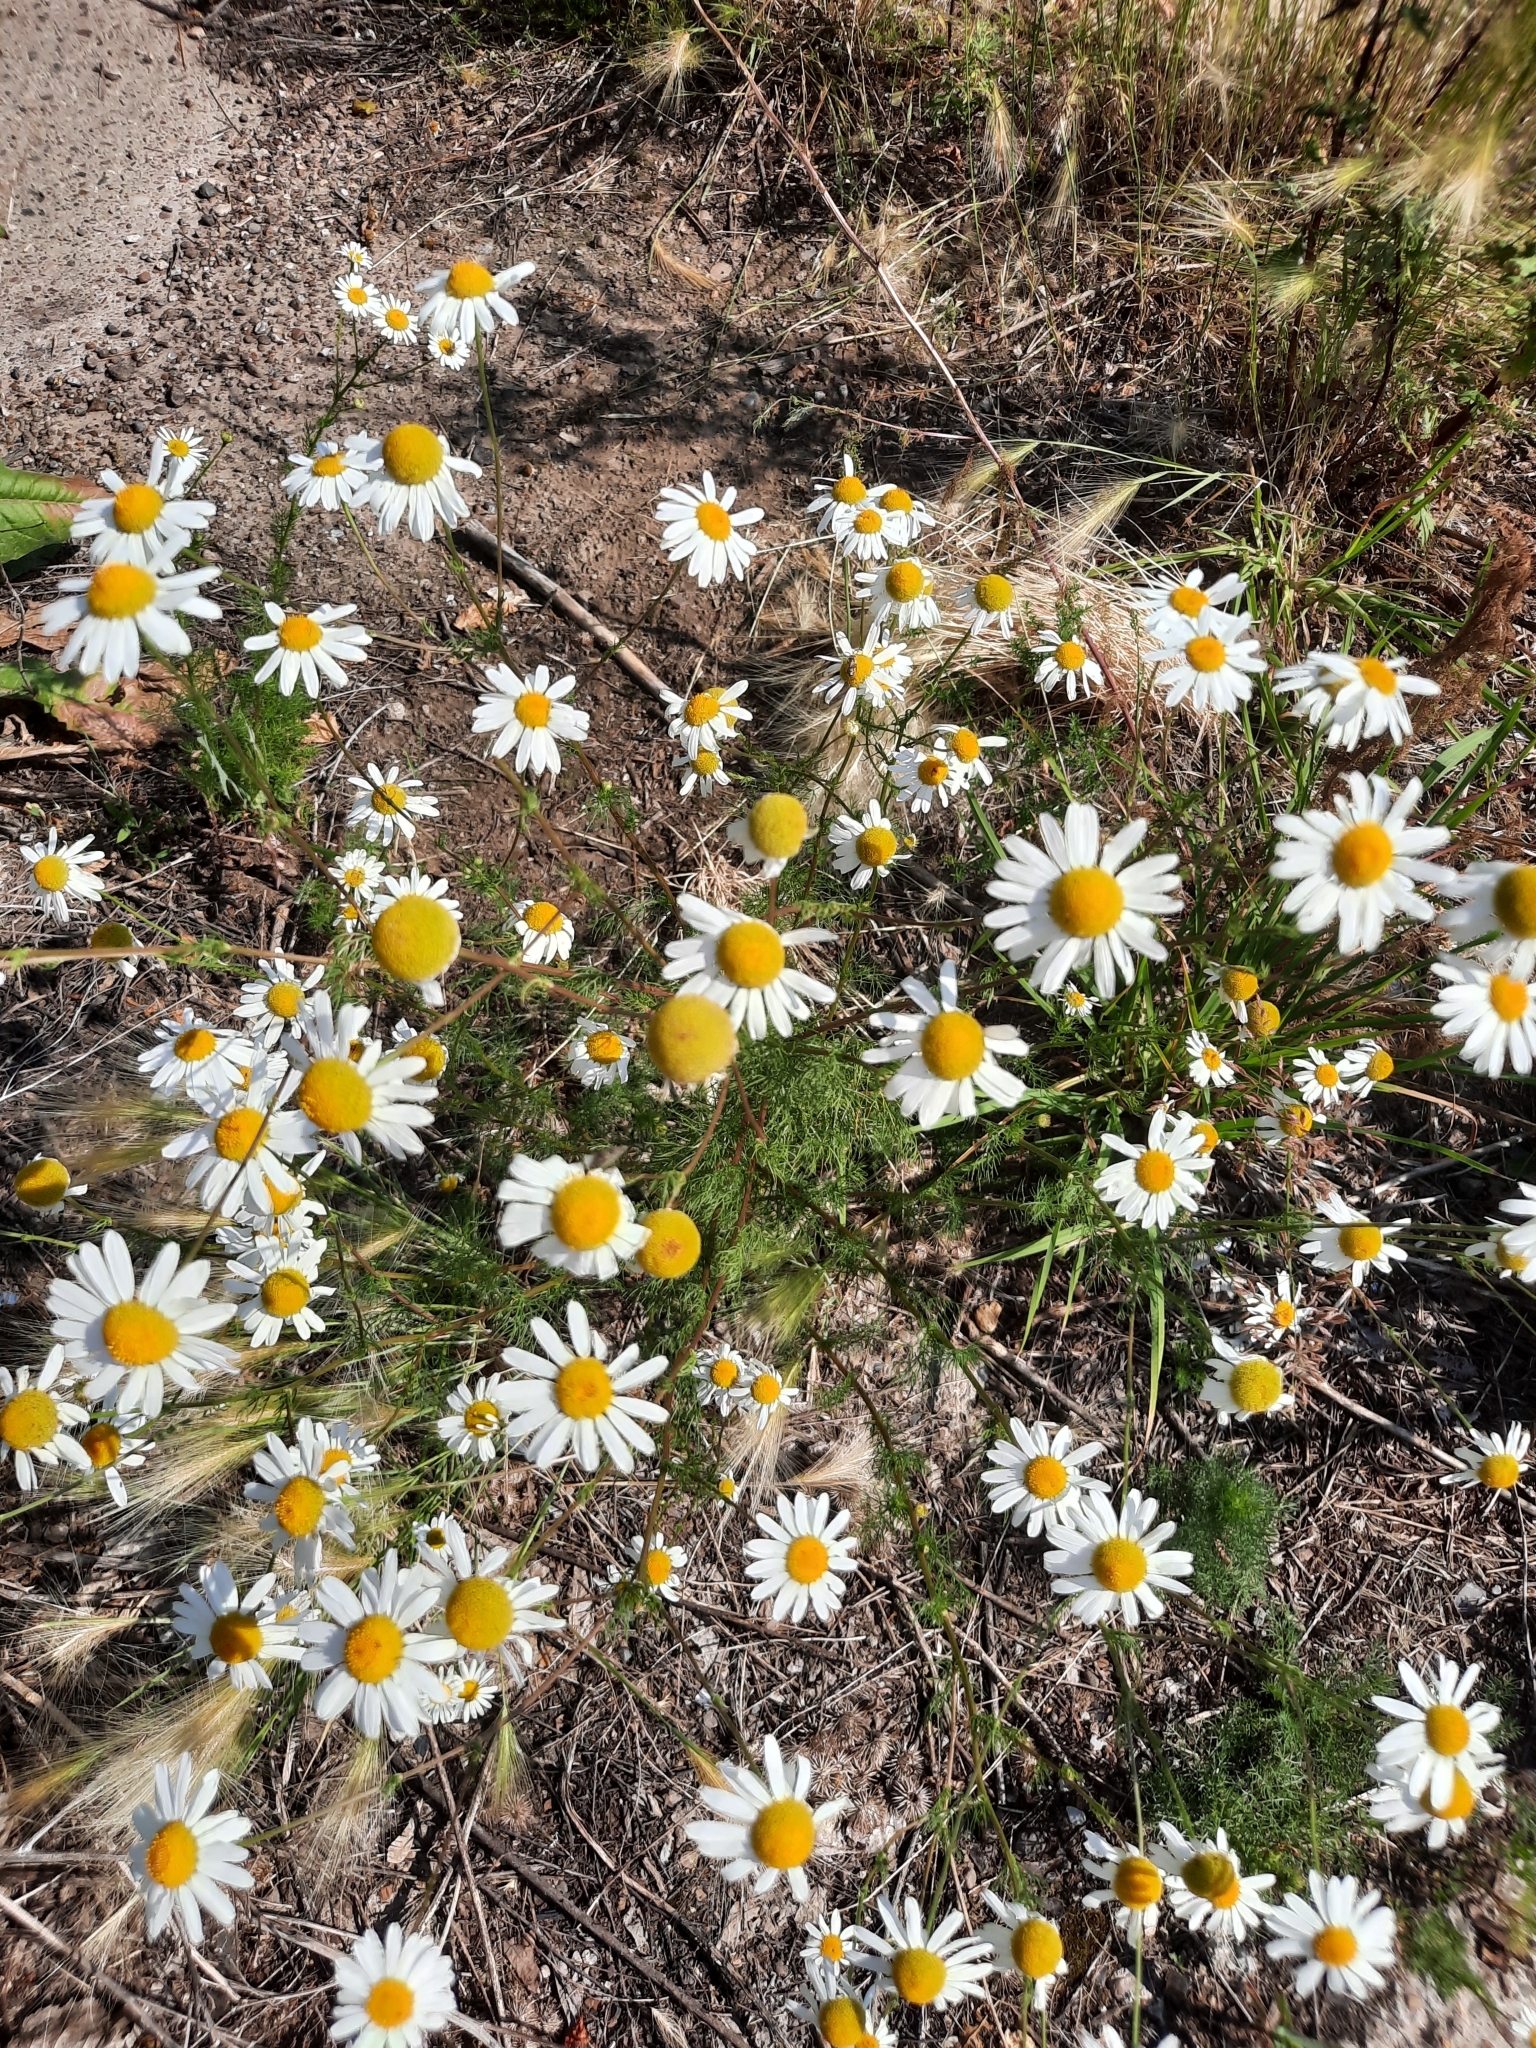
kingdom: Plantae
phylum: Tracheophyta
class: Magnoliopsida
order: Asterales
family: Asteraceae
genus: Tripleurospermum
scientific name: Tripleurospermum inodorum
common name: Scentless mayweed
